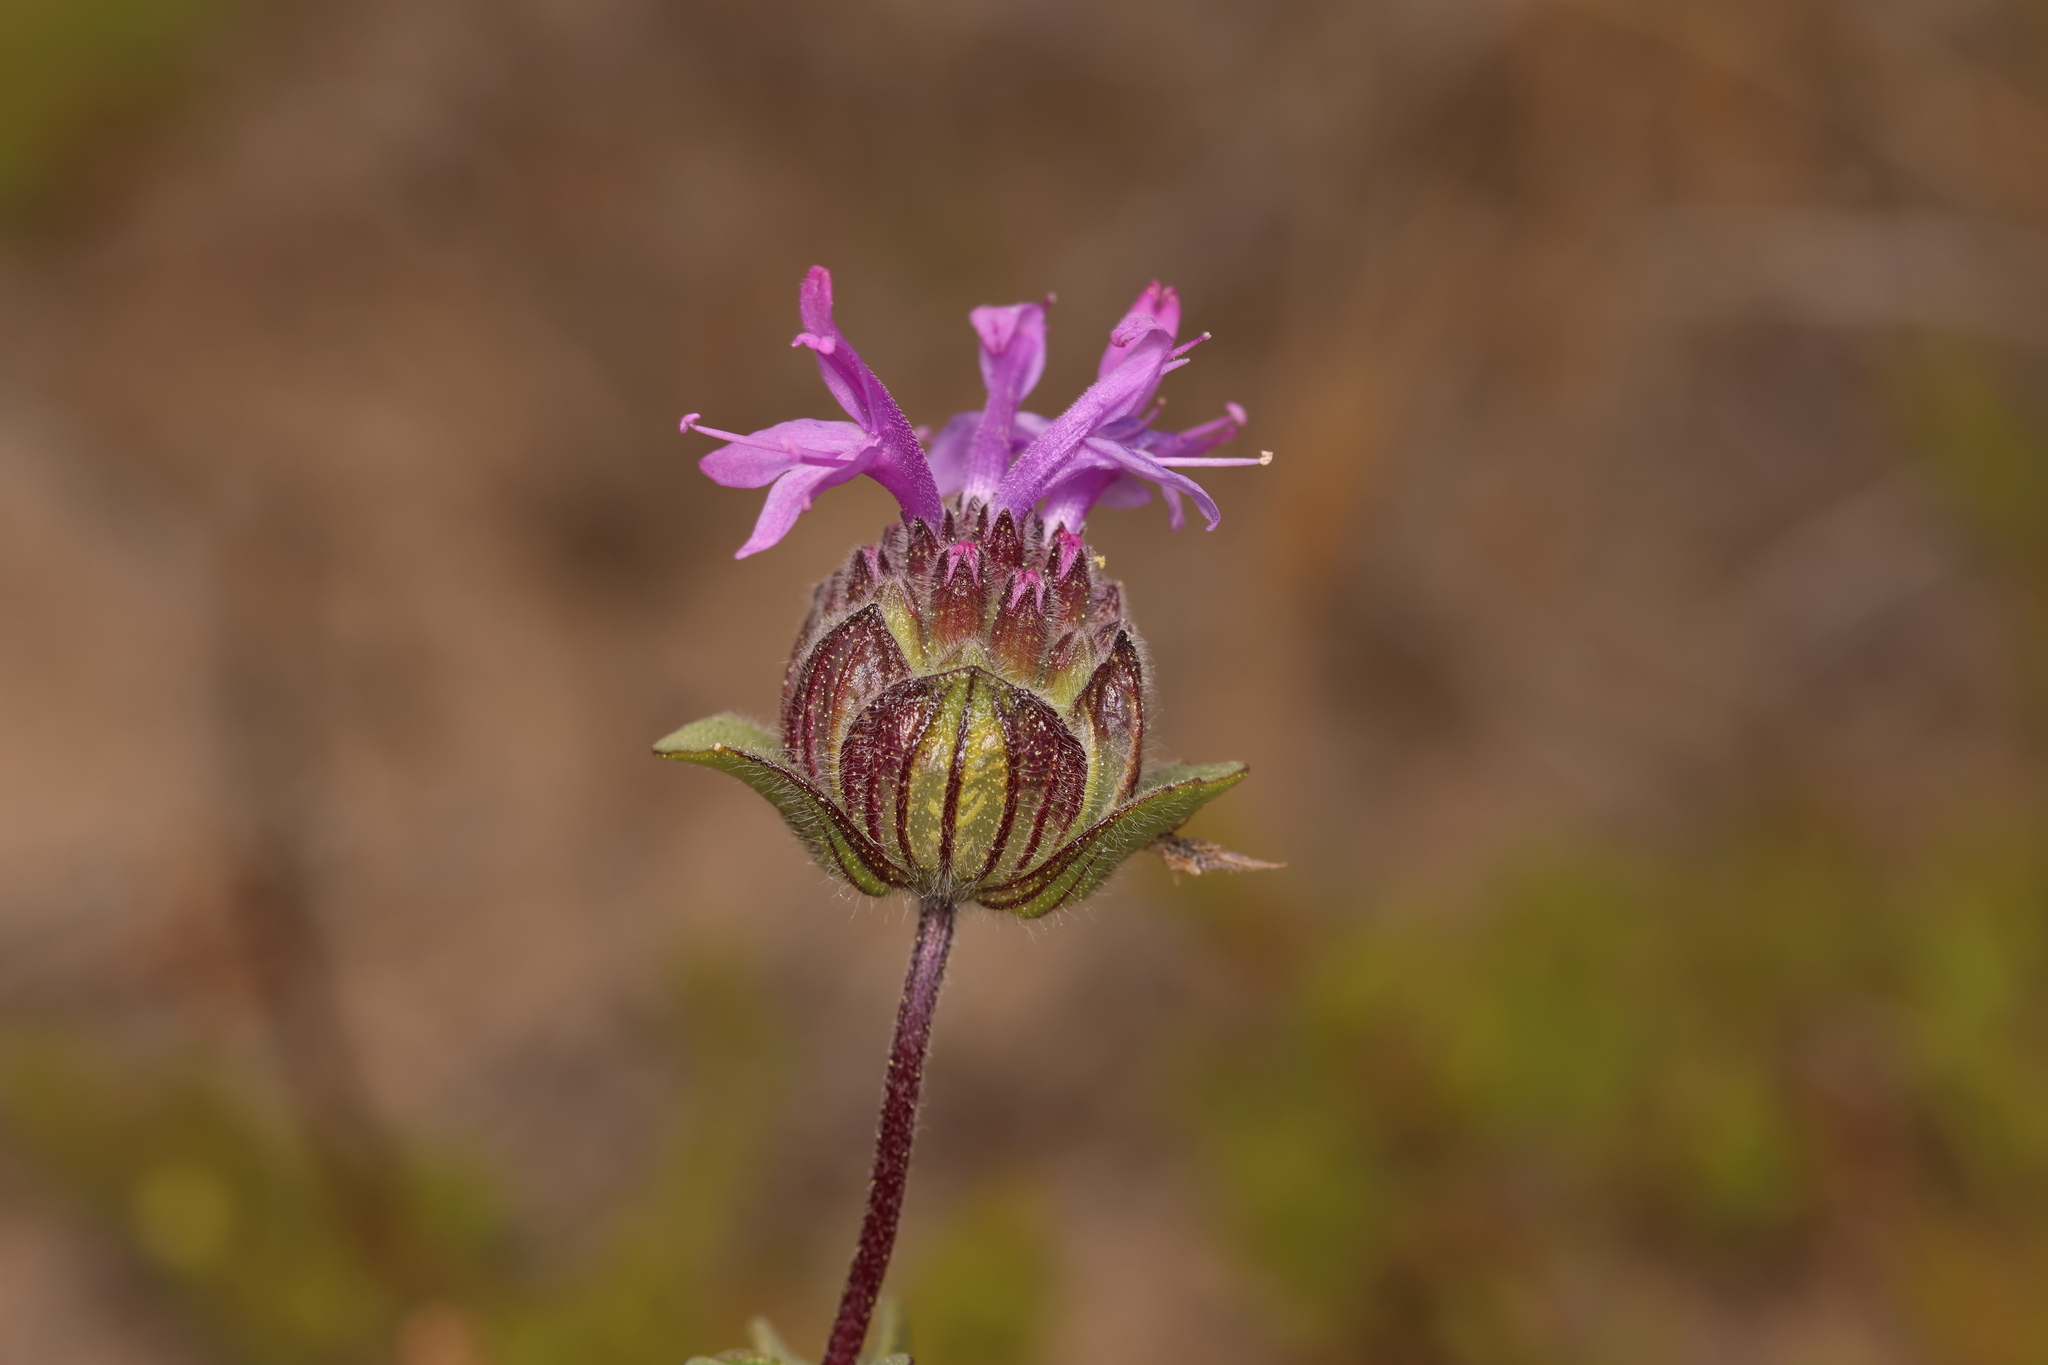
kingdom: Plantae
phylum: Tracheophyta
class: Magnoliopsida
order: Lamiales
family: Lamiaceae
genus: Monardella
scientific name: Monardella sinuata
